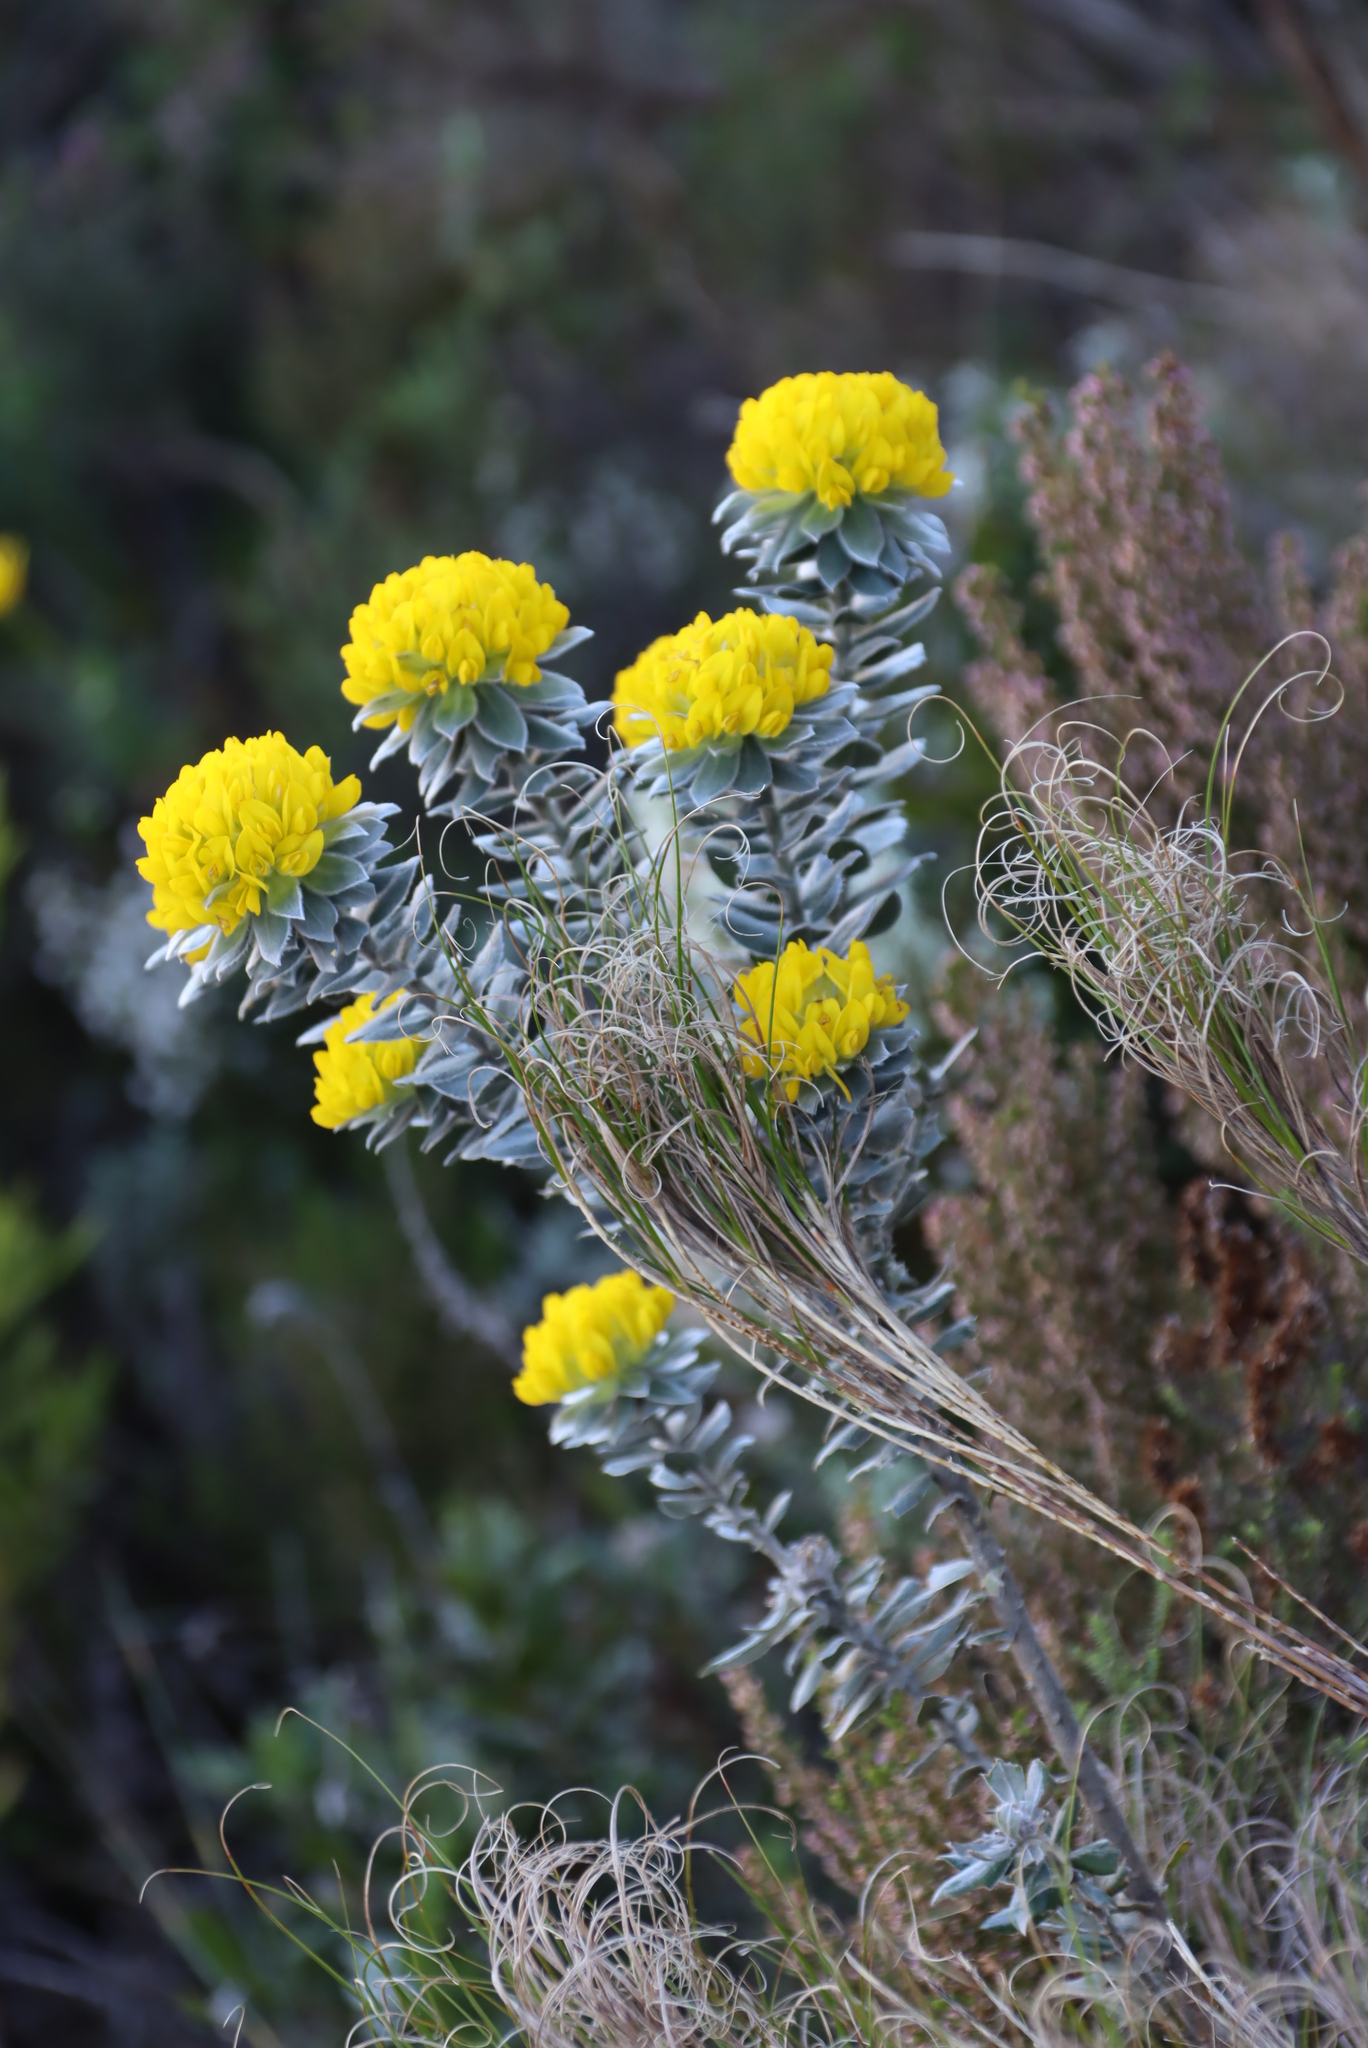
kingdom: Plantae
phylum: Tracheophyta
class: Magnoliopsida
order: Fabales
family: Fabaceae
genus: Xiphotheca
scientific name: Xiphotheca fruticosa
